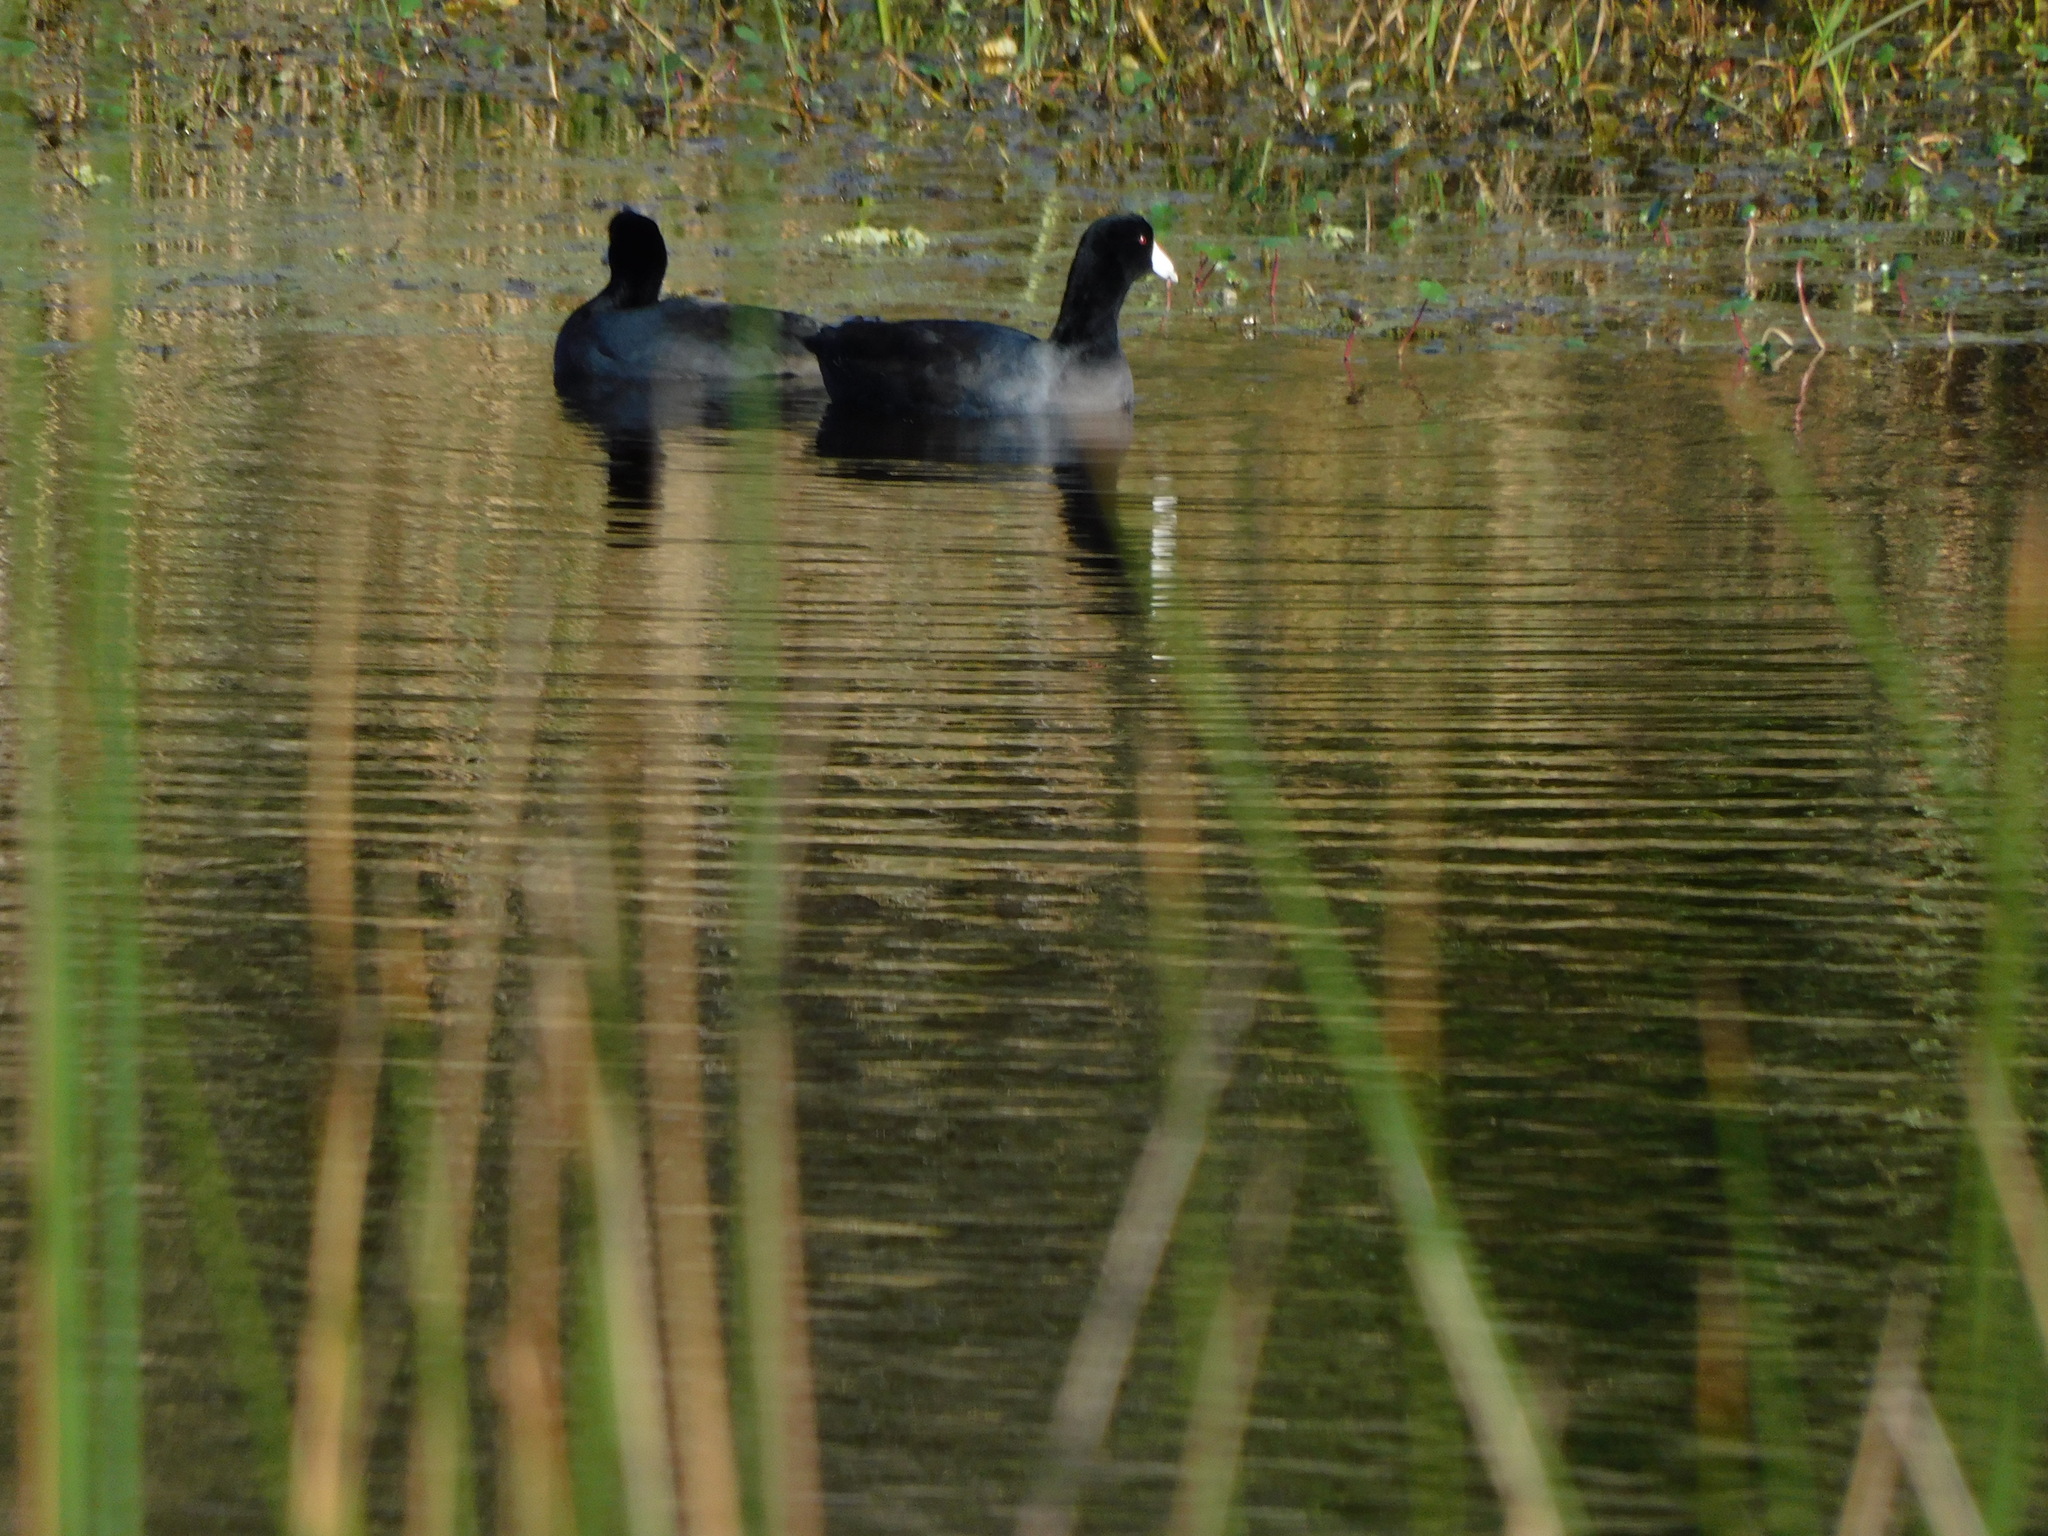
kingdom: Animalia
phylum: Chordata
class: Aves
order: Gruiformes
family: Rallidae
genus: Fulica
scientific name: Fulica americana
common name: American coot
